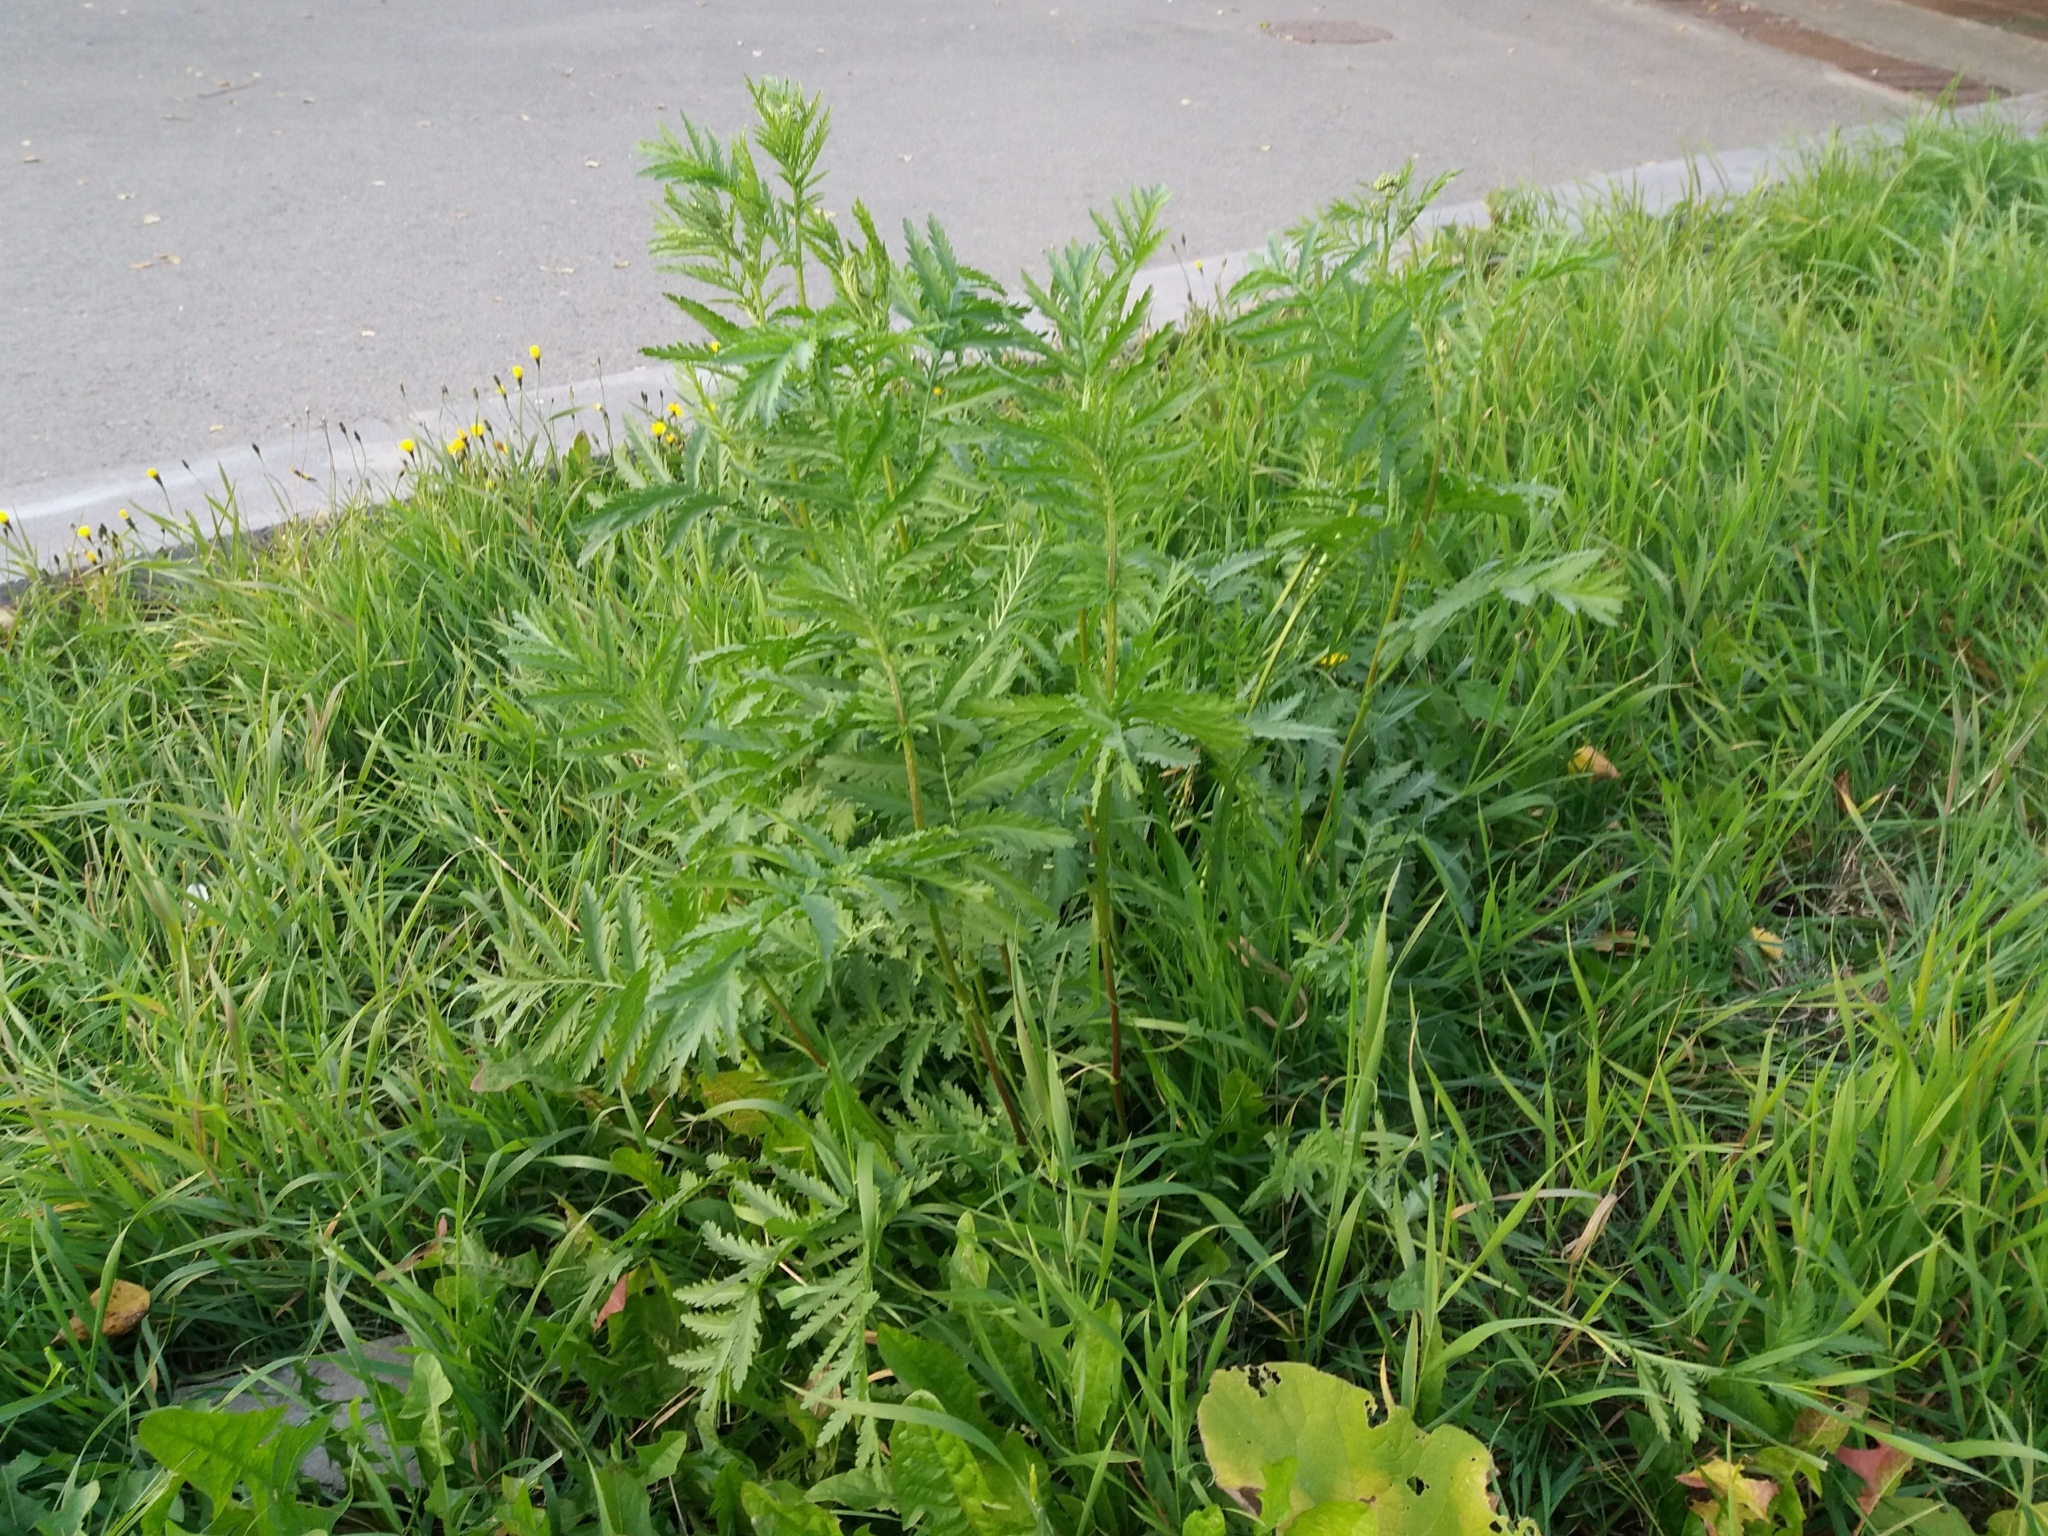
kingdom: Plantae
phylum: Tracheophyta
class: Magnoliopsida
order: Asterales
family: Asteraceae
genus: Tanacetum
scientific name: Tanacetum vulgare
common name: Common tansy
